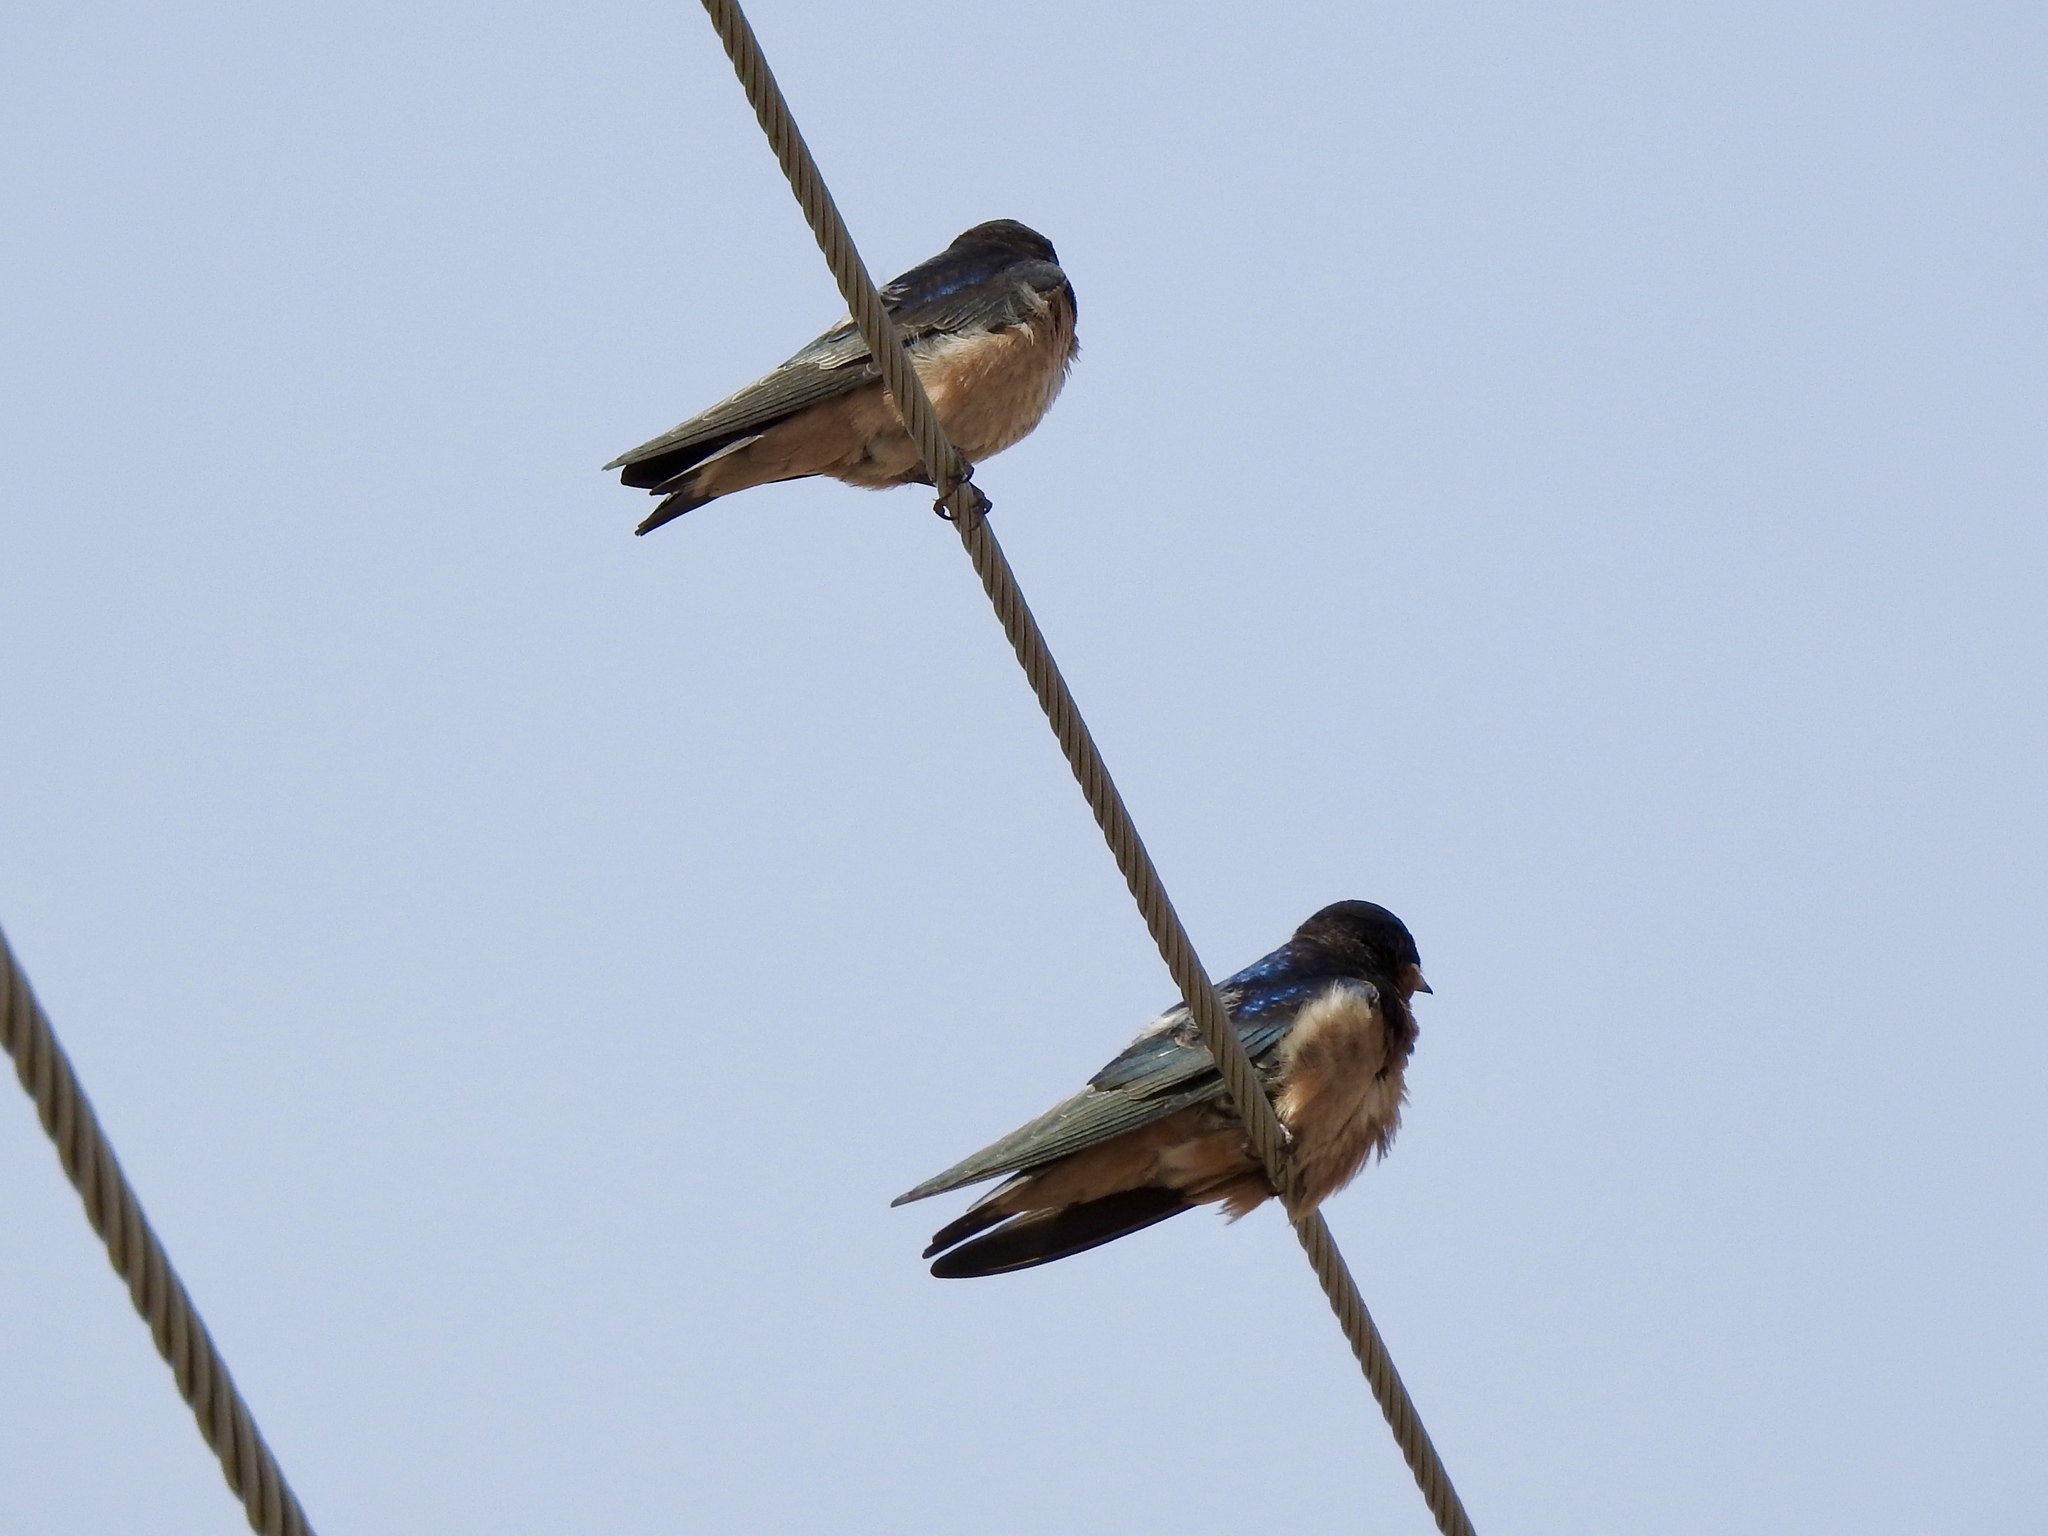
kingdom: Animalia
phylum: Chordata
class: Aves
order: Passeriformes
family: Hirundinidae
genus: Hirundo
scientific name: Hirundo rustica
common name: Barn swallow
